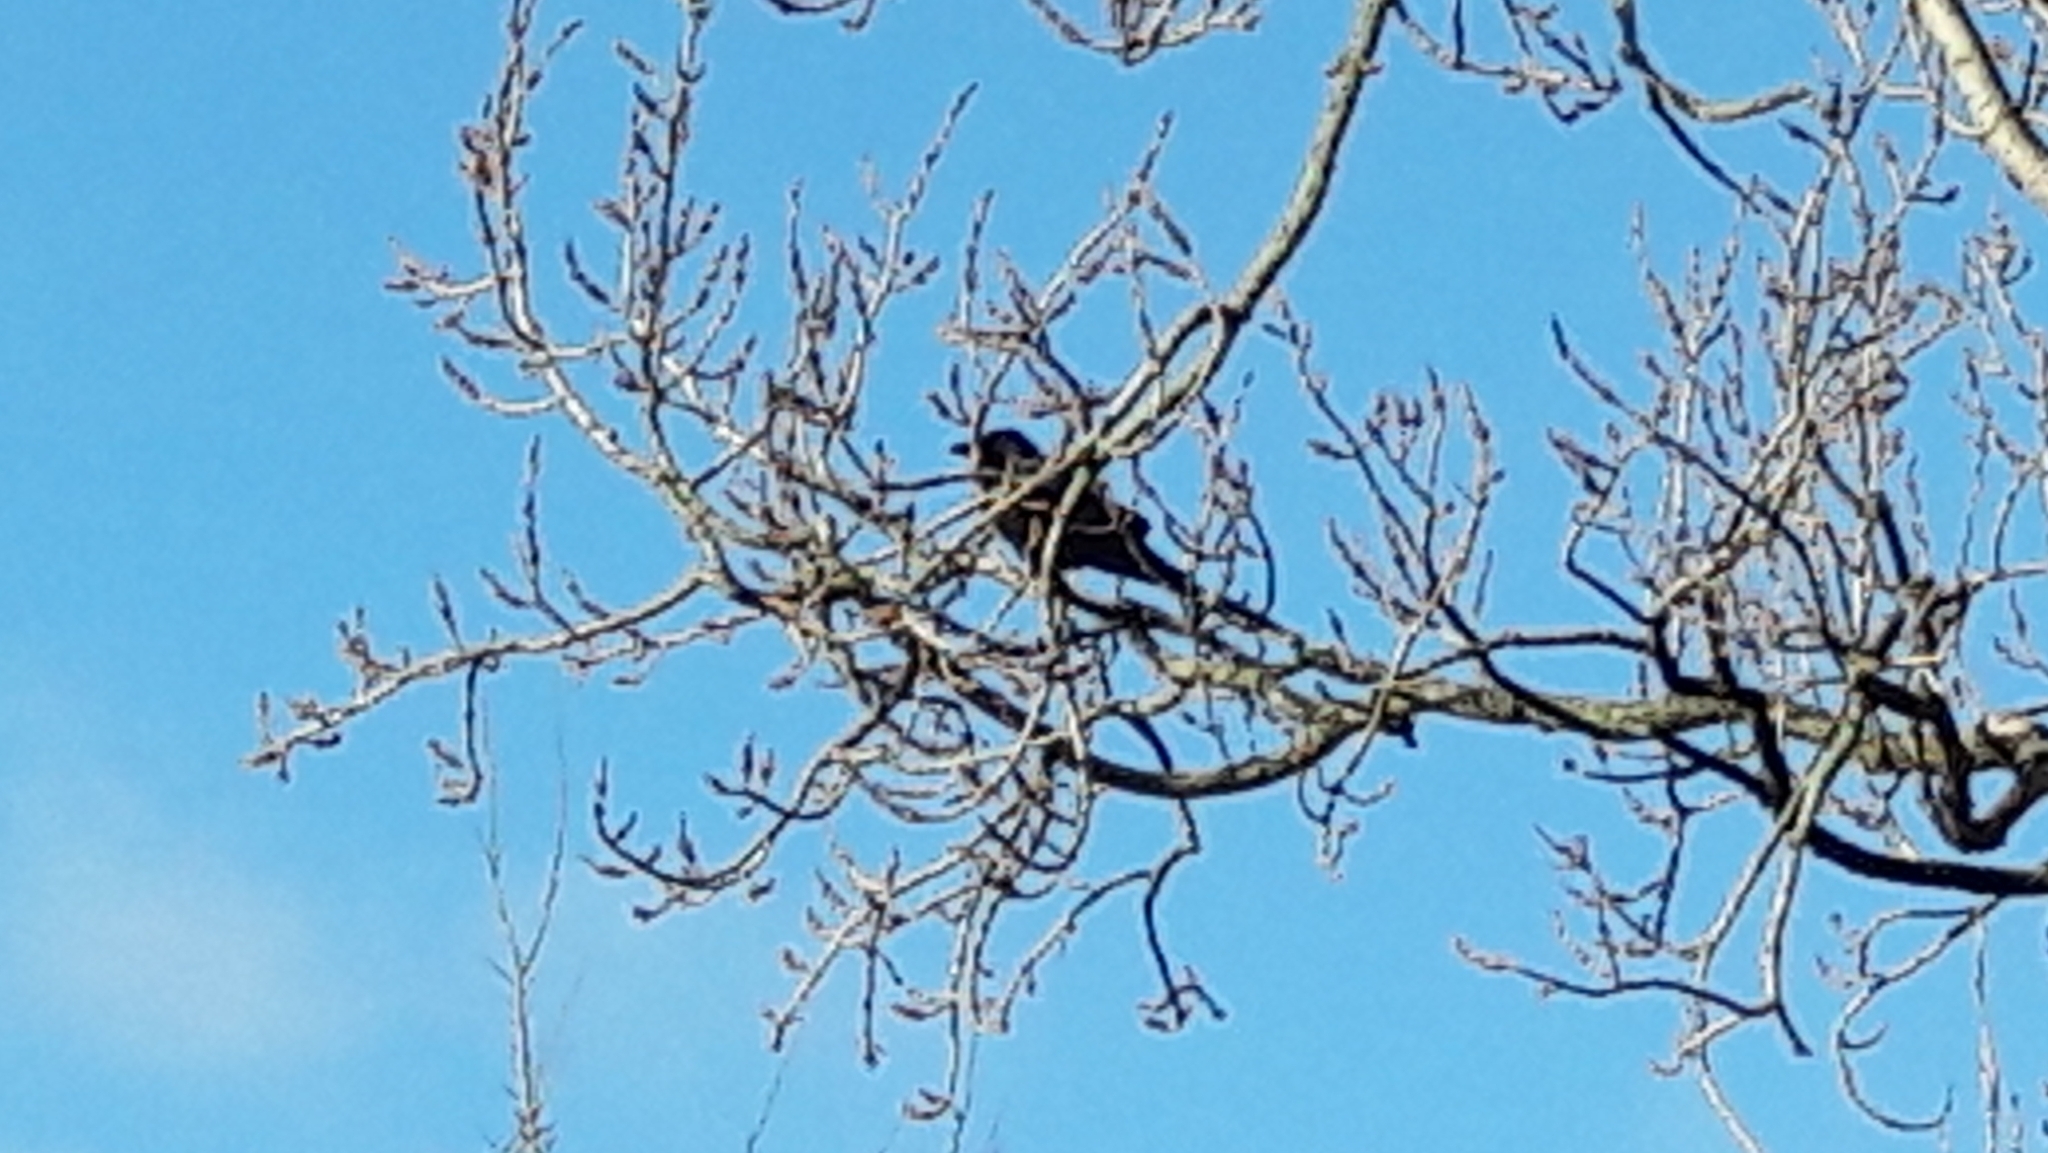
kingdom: Animalia
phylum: Chordata
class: Aves
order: Passeriformes
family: Corvidae
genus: Corvus
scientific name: Corvus corone
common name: Carrion crow
